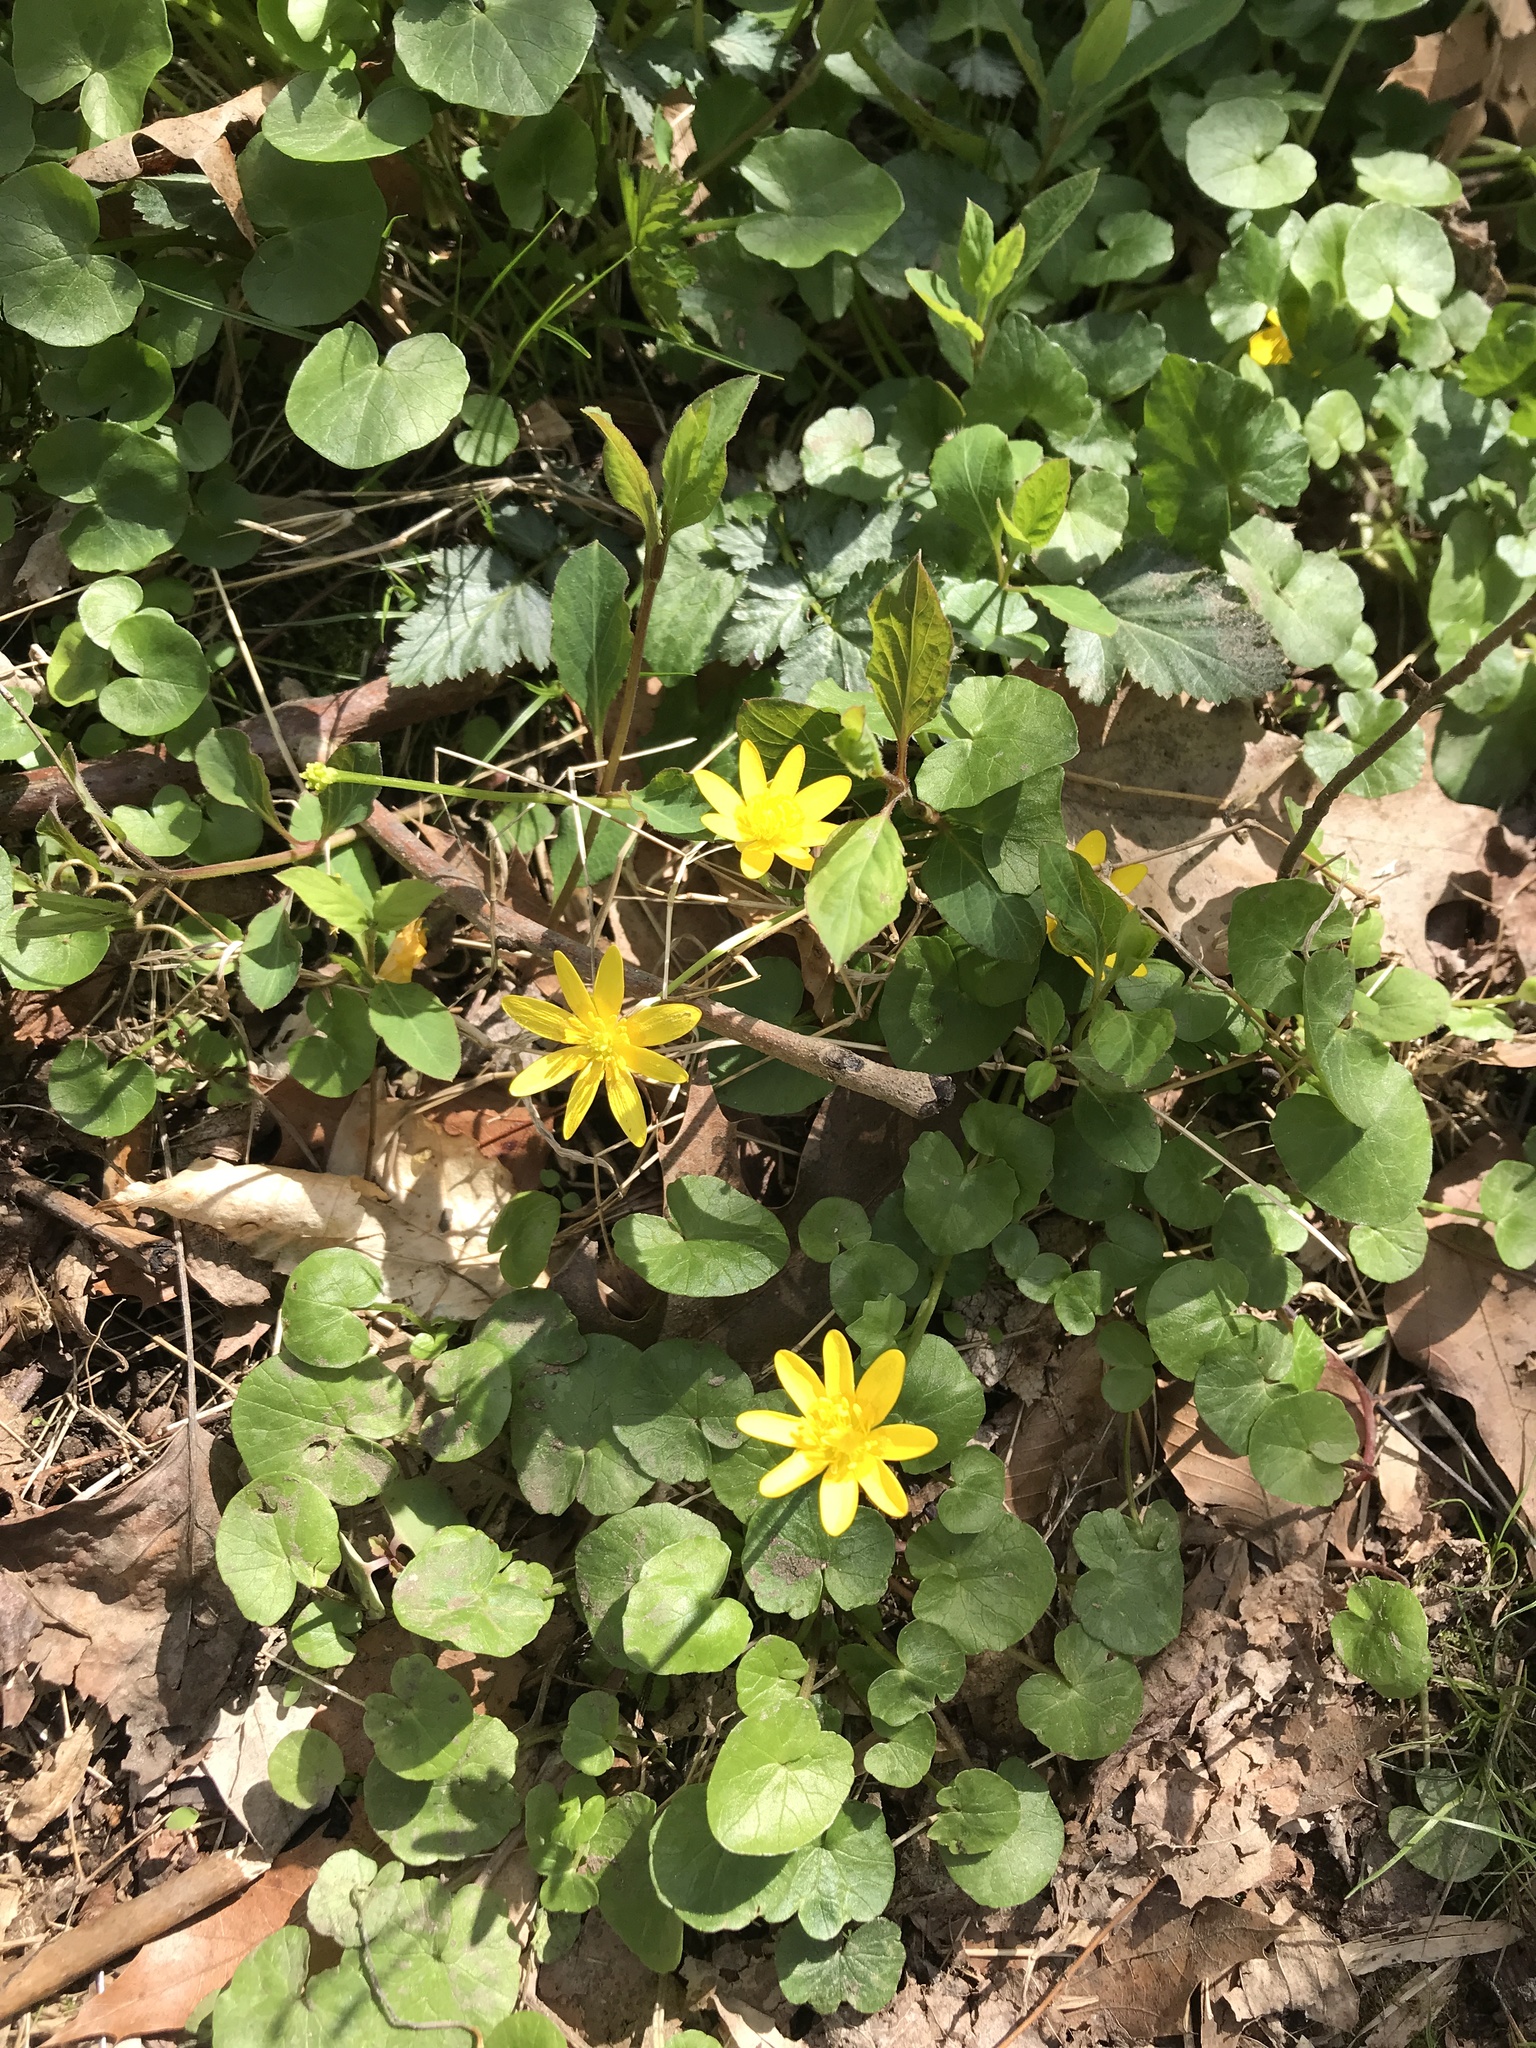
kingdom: Plantae
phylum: Tracheophyta
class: Magnoliopsida
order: Ranunculales
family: Ranunculaceae
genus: Ficaria
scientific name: Ficaria verna
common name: Lesser celandine
